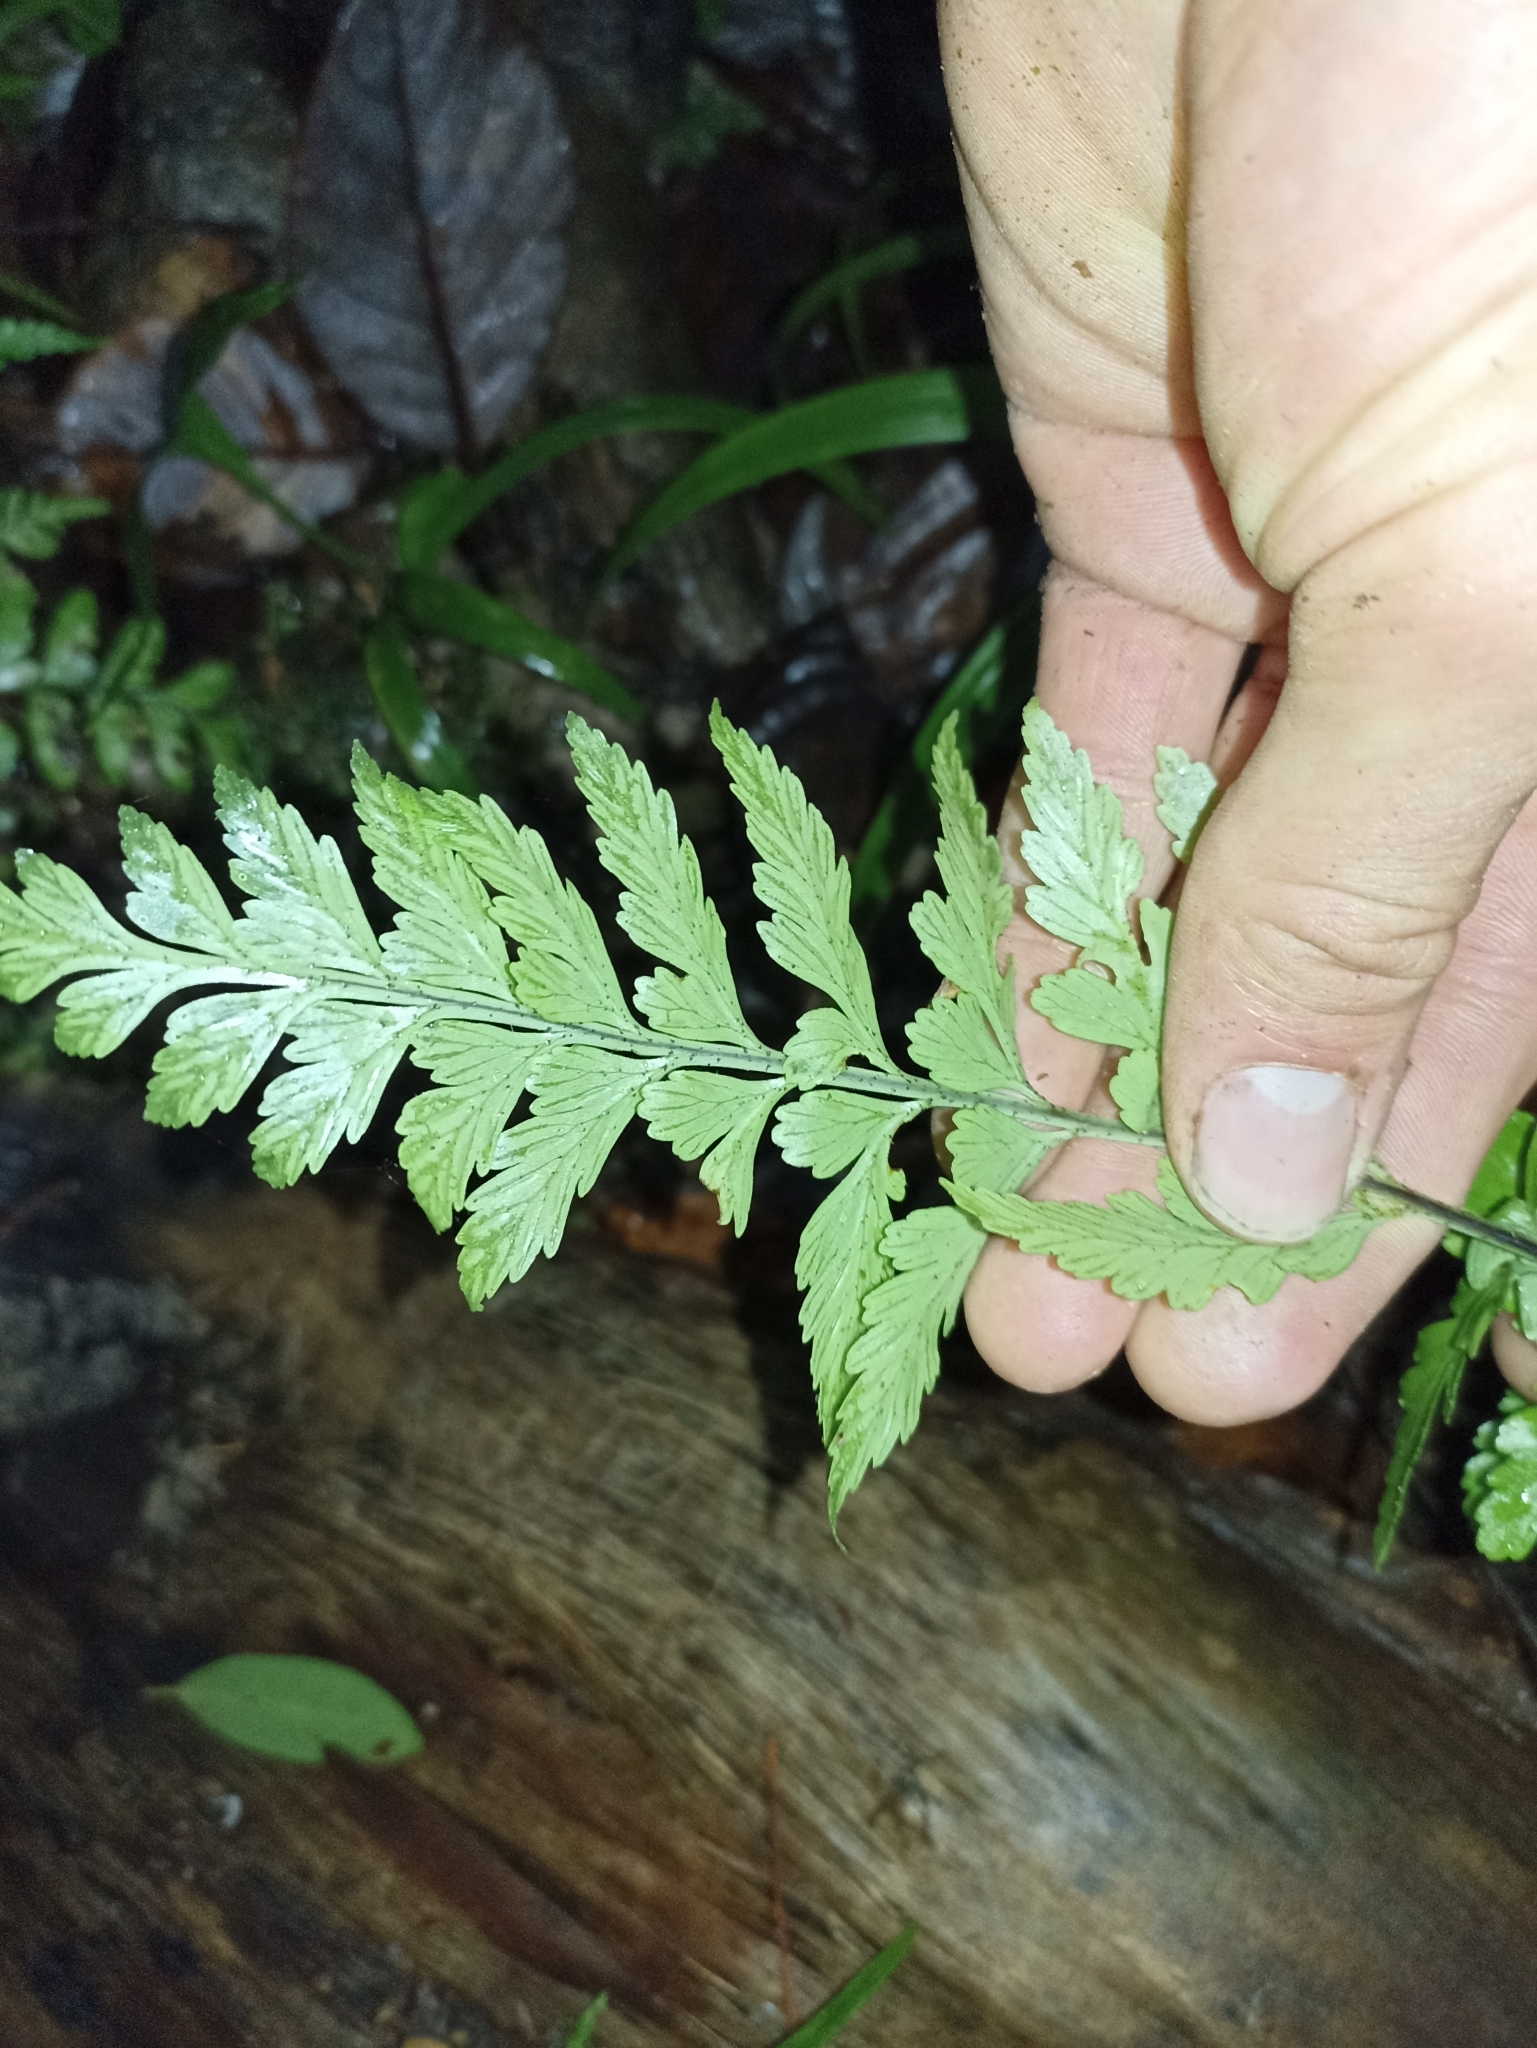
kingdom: Plantae
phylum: Tracheophyta
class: Polypodiopsida
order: Polypodiales
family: Aspleniaceae
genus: Asplenium
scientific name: Asplenium lamprophyllum
